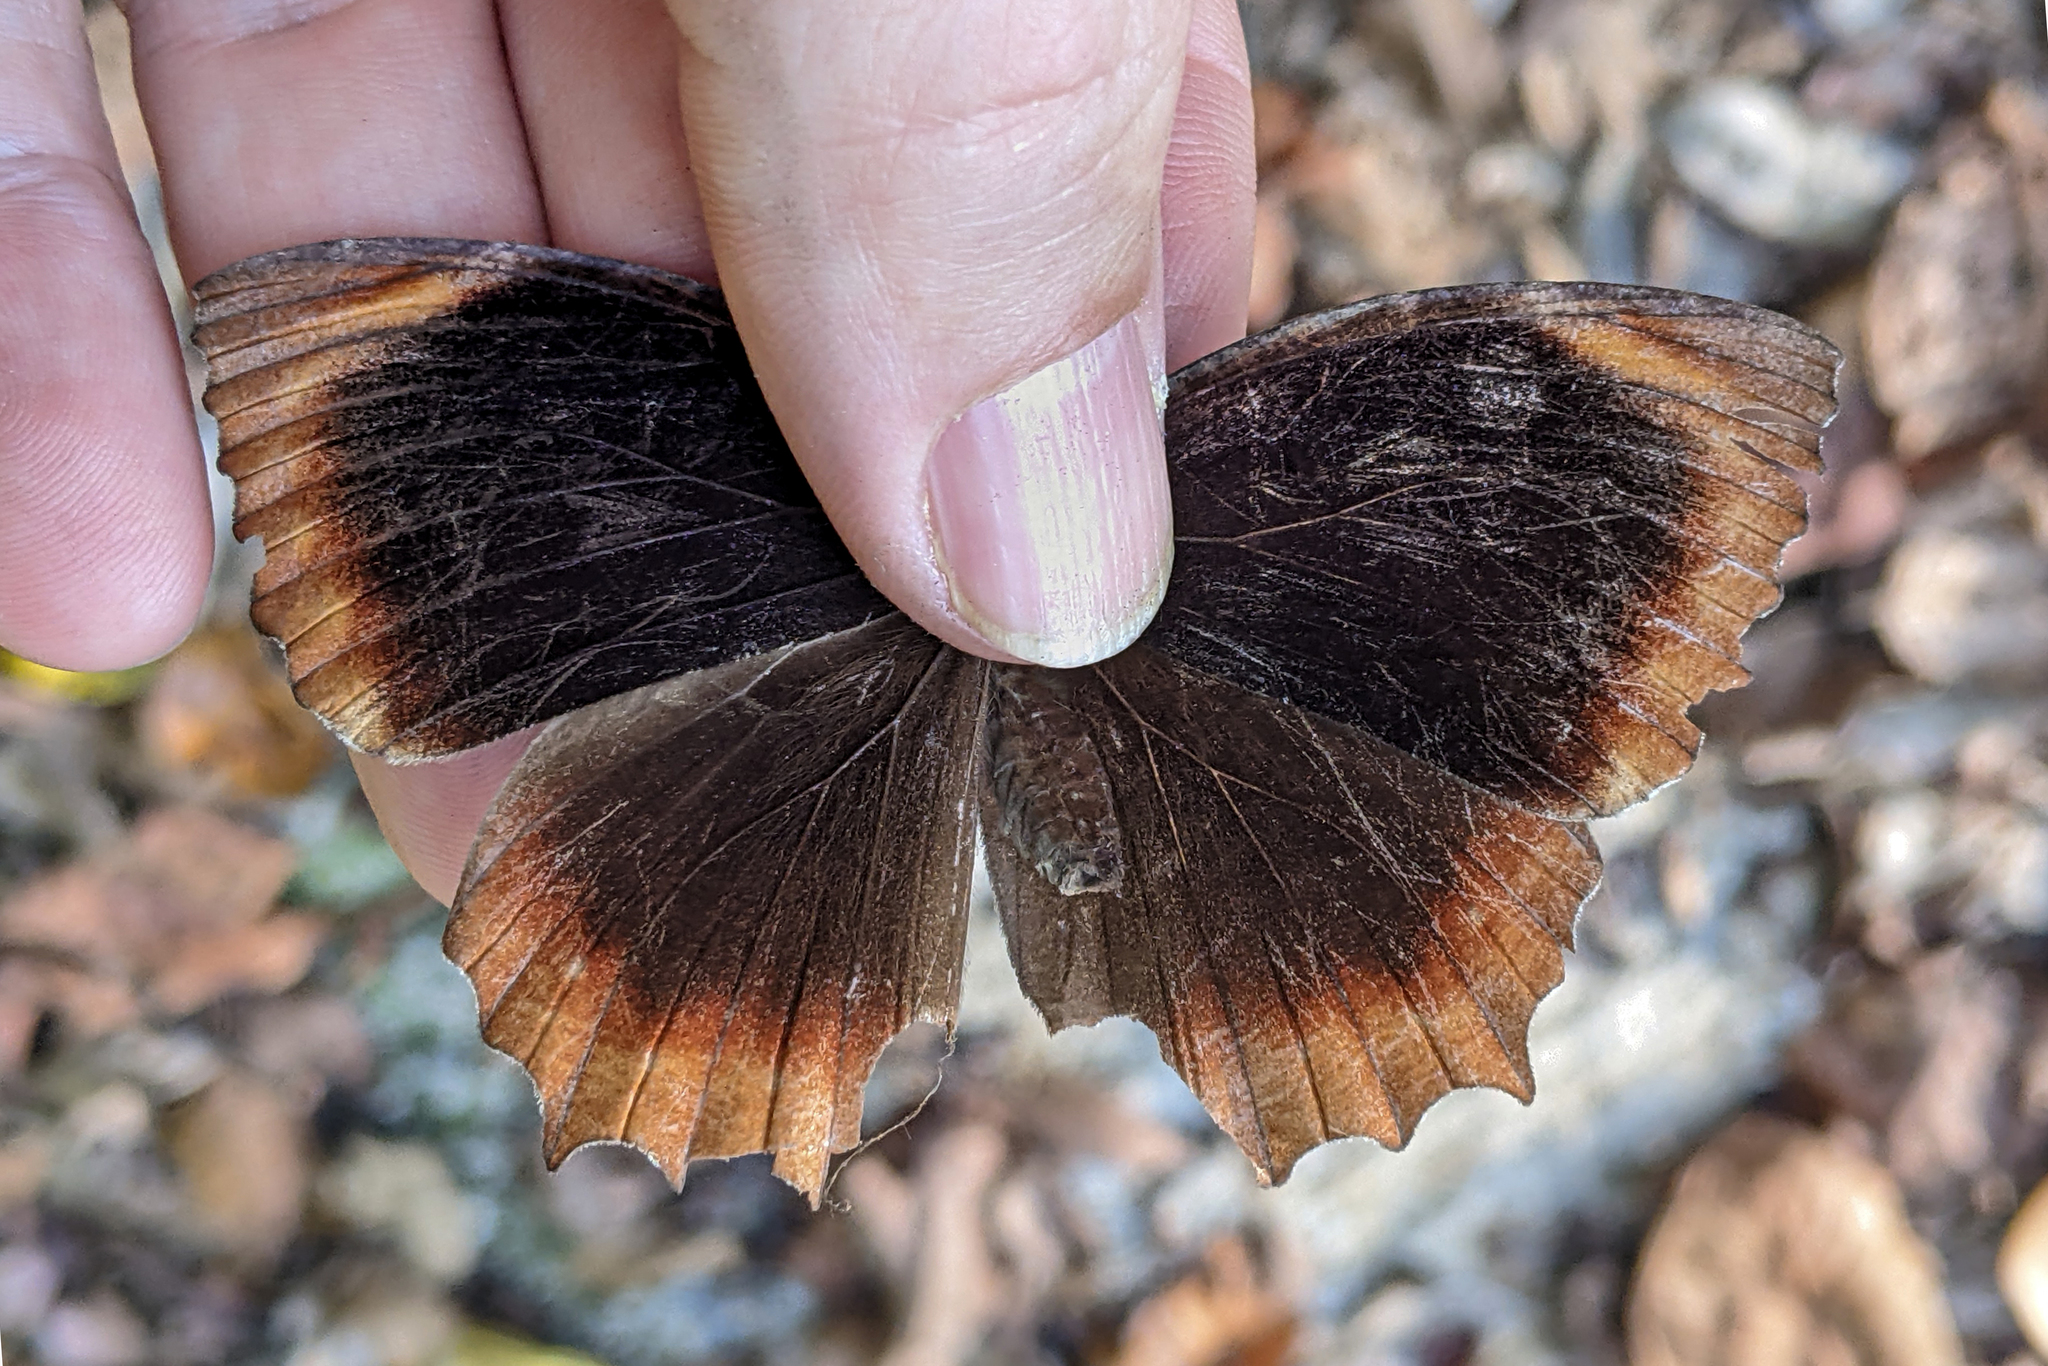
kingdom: Animalia
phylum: Arthropoda
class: Insecta
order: Lepidoptera
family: Nymphalidae
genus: Elymnias
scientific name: Elymnias hypermnestra
